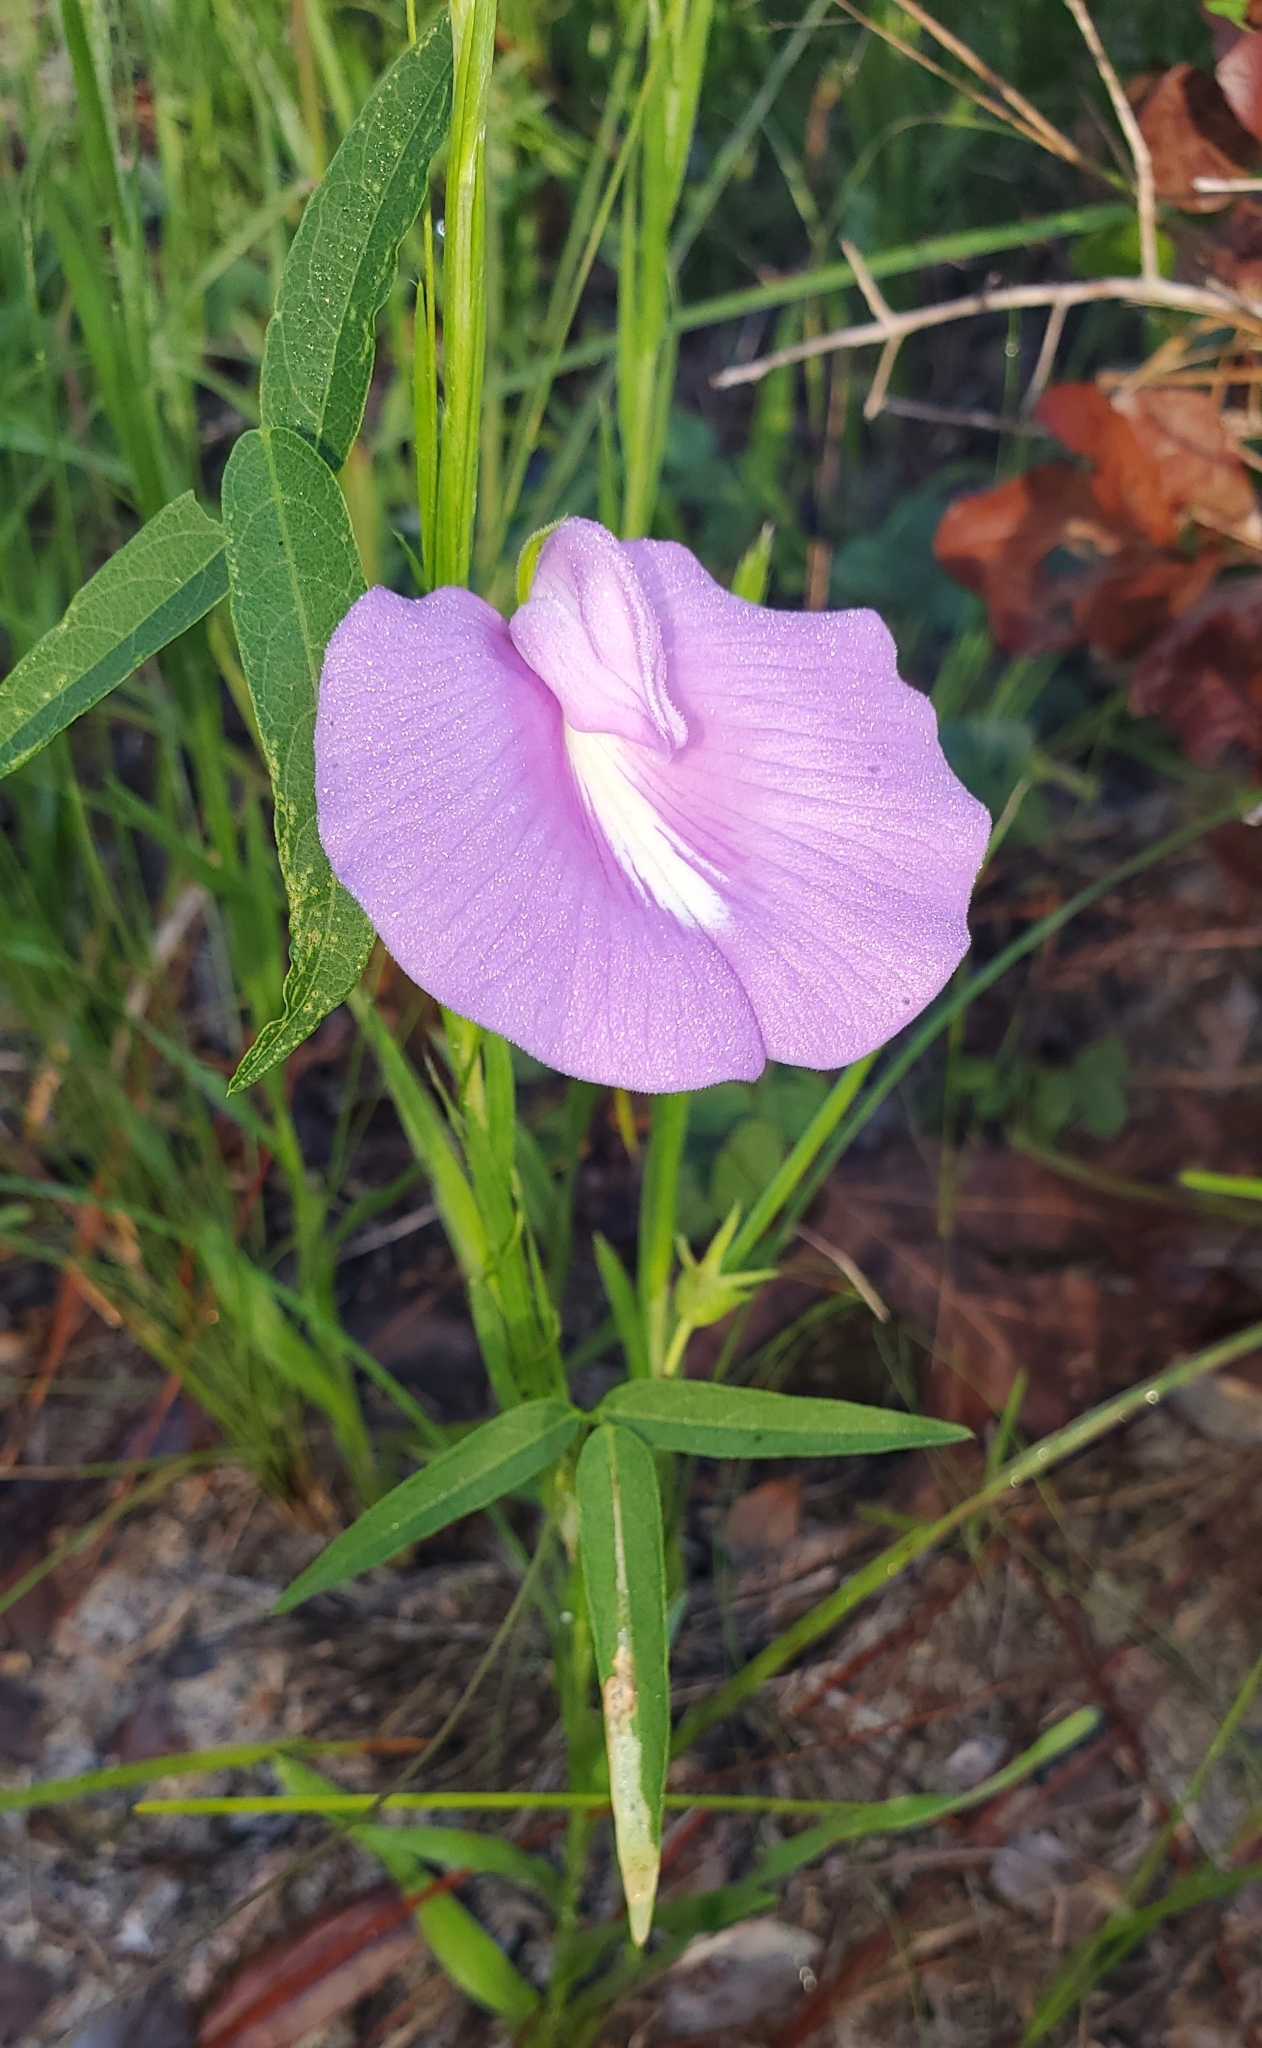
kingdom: Plantae
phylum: Tracheophyta
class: Magnoliopsida
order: Fabales
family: Fabaceae
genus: Centrosema
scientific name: Centrosema virginianum
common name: Butterfly-pea
